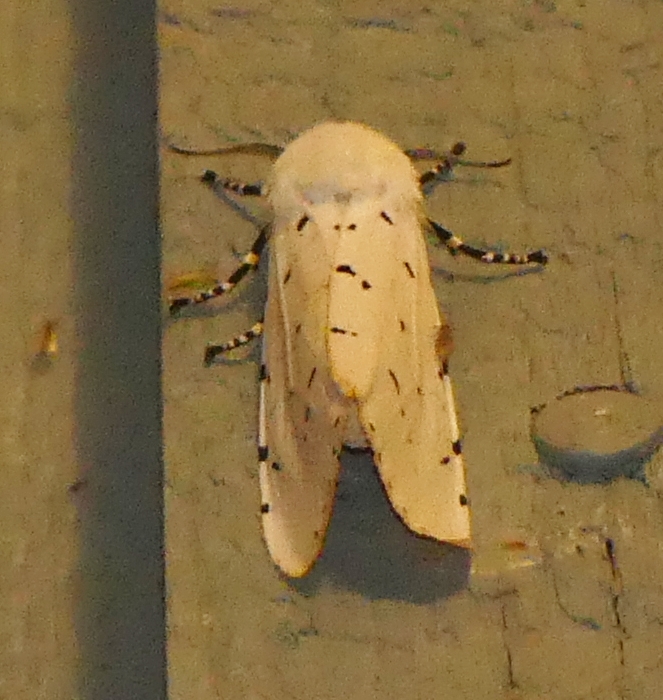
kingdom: Animalia
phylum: Arthropoda
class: Insecta
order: Lepidoptera
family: Erebidae
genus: Estigmene
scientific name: Estigmene acrea
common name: Salt marsh moth
